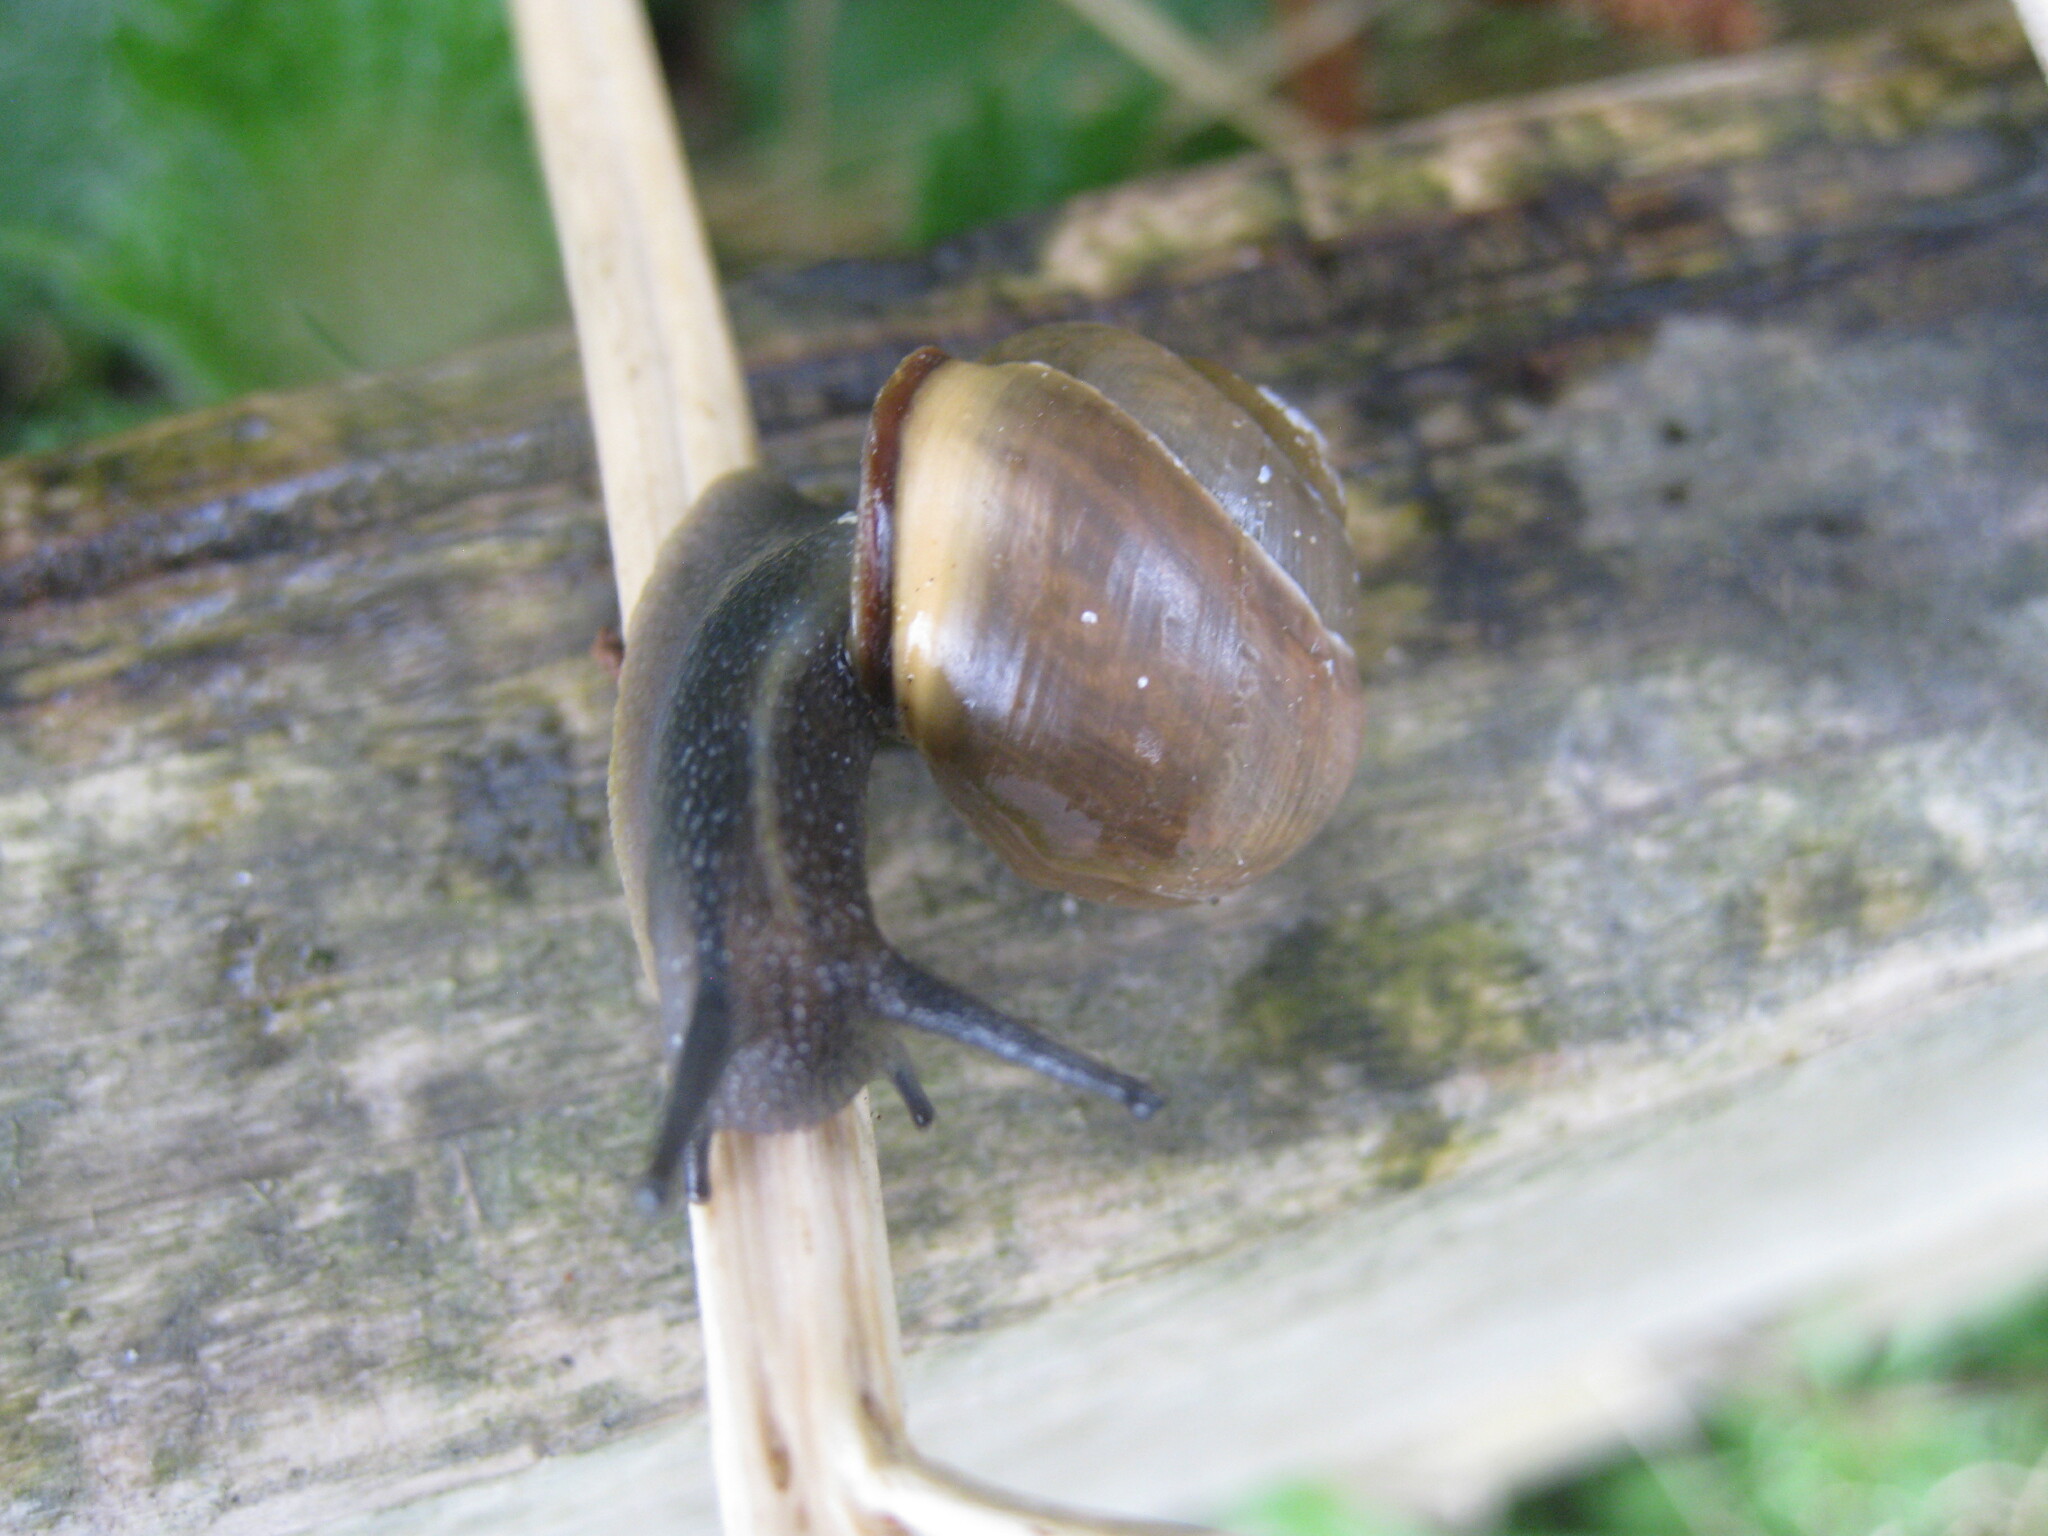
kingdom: Animalia
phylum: Mollusca
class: Gastropoda
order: Stylommatophora
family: Helicidae
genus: Cepaea
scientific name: Cepaea nemoralis
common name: Grovesnail
